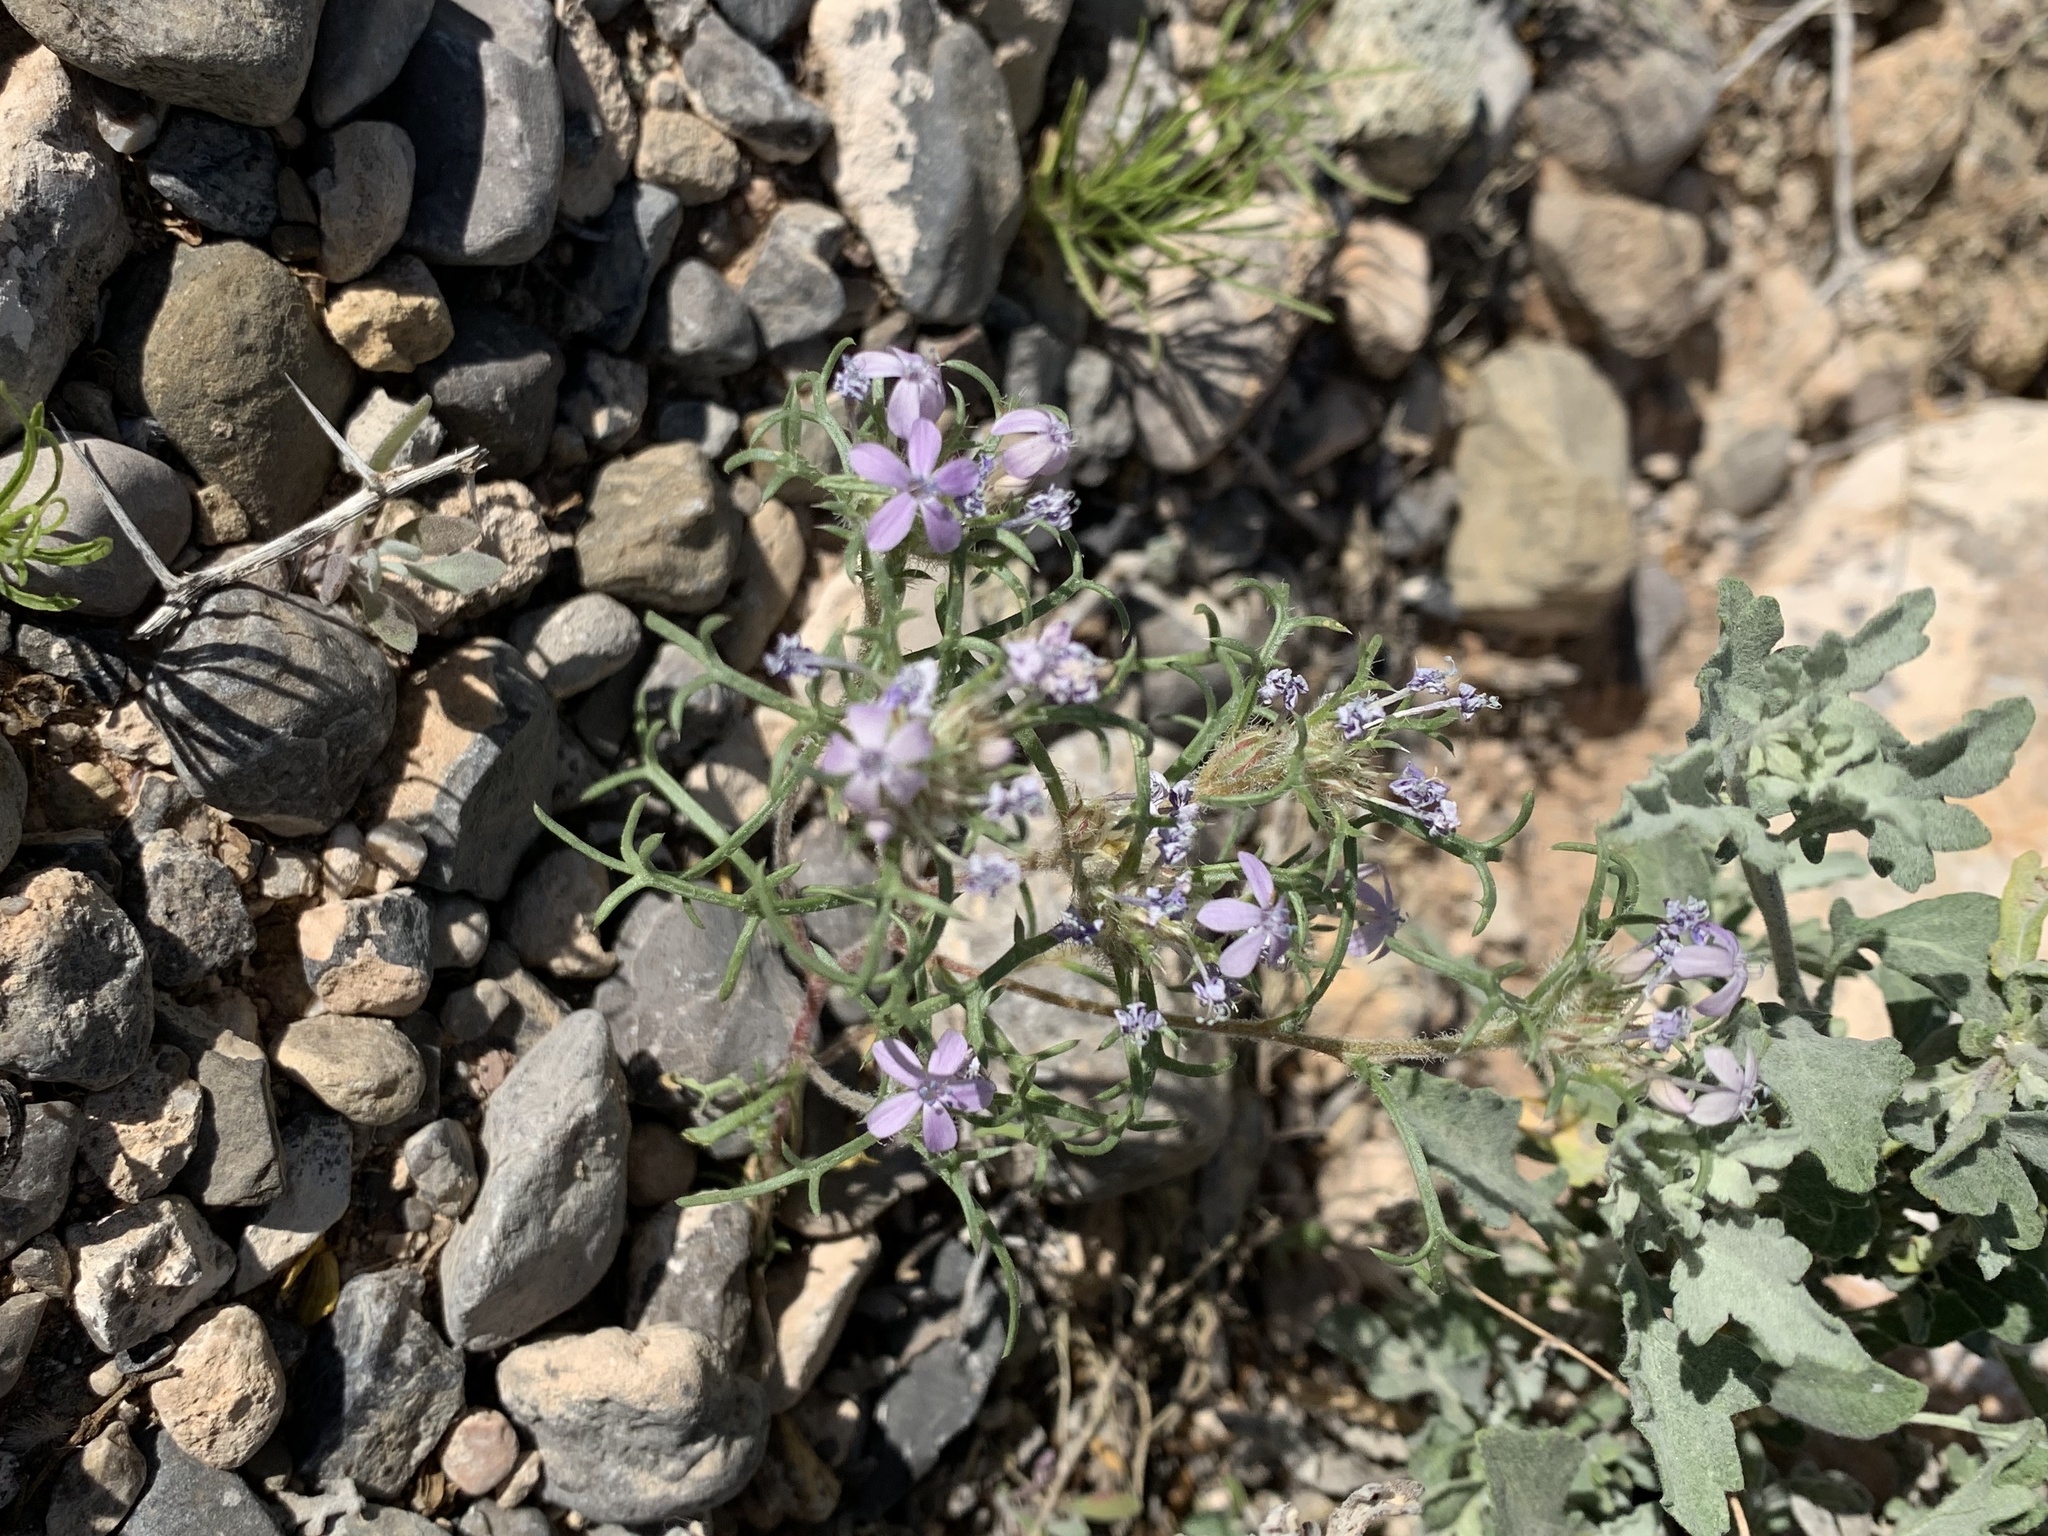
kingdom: Plantae
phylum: Tracheophyta
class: Magnoliopsida
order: Ericales
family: Polemoniaceae
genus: Ipomopsis
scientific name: Ipomopsis pumila
